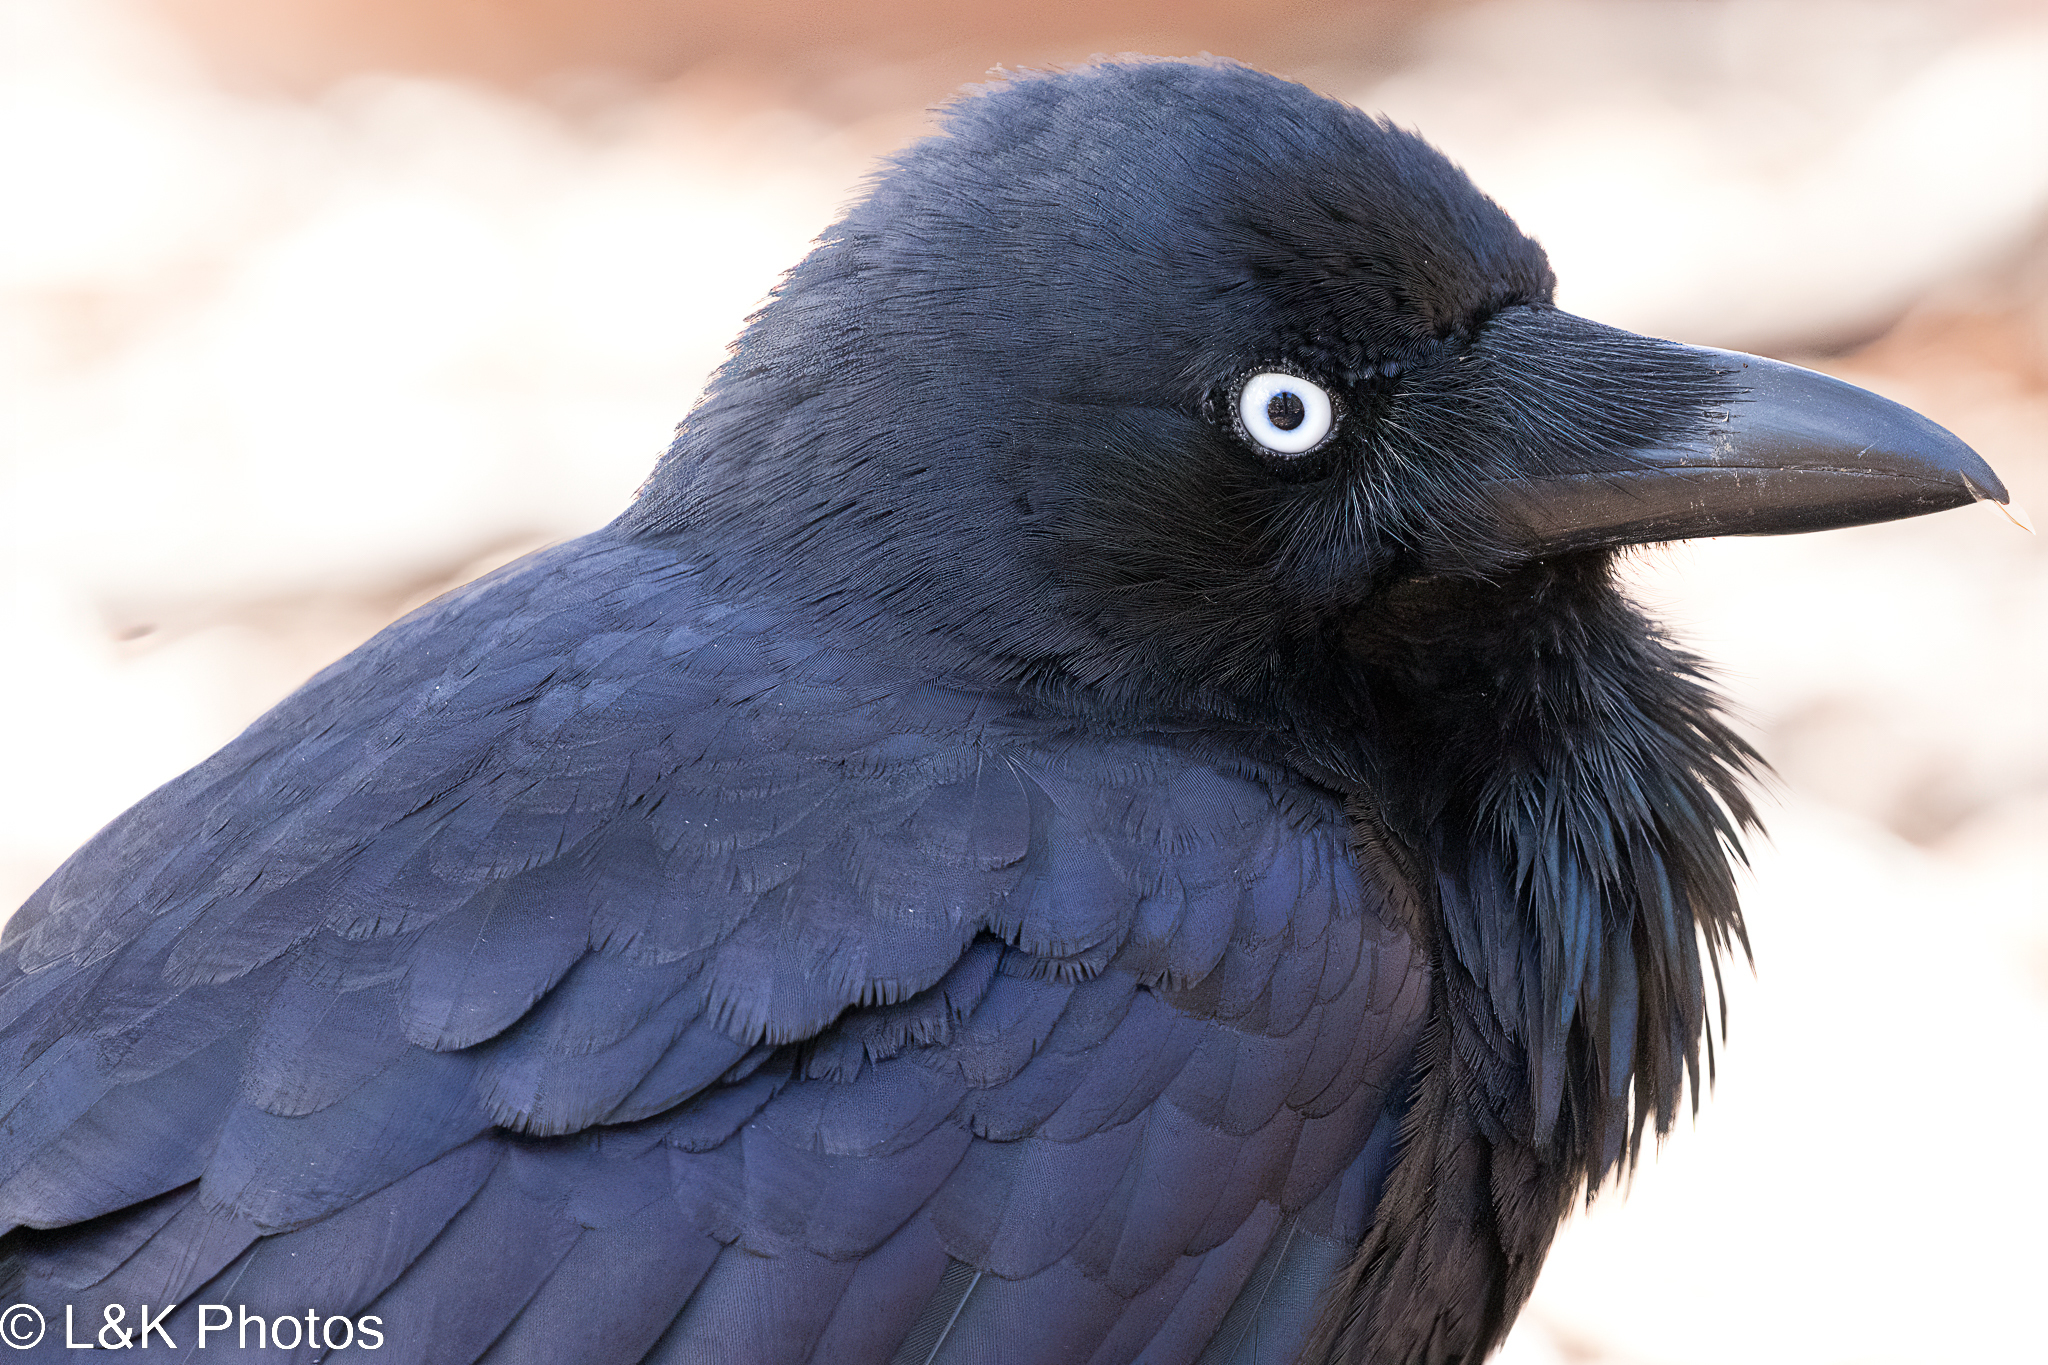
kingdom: Animalia
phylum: Chordata
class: Aves
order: Passeriformes
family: Corvidae
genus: Corvus
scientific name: Corvus coronoides
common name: Australian raven
